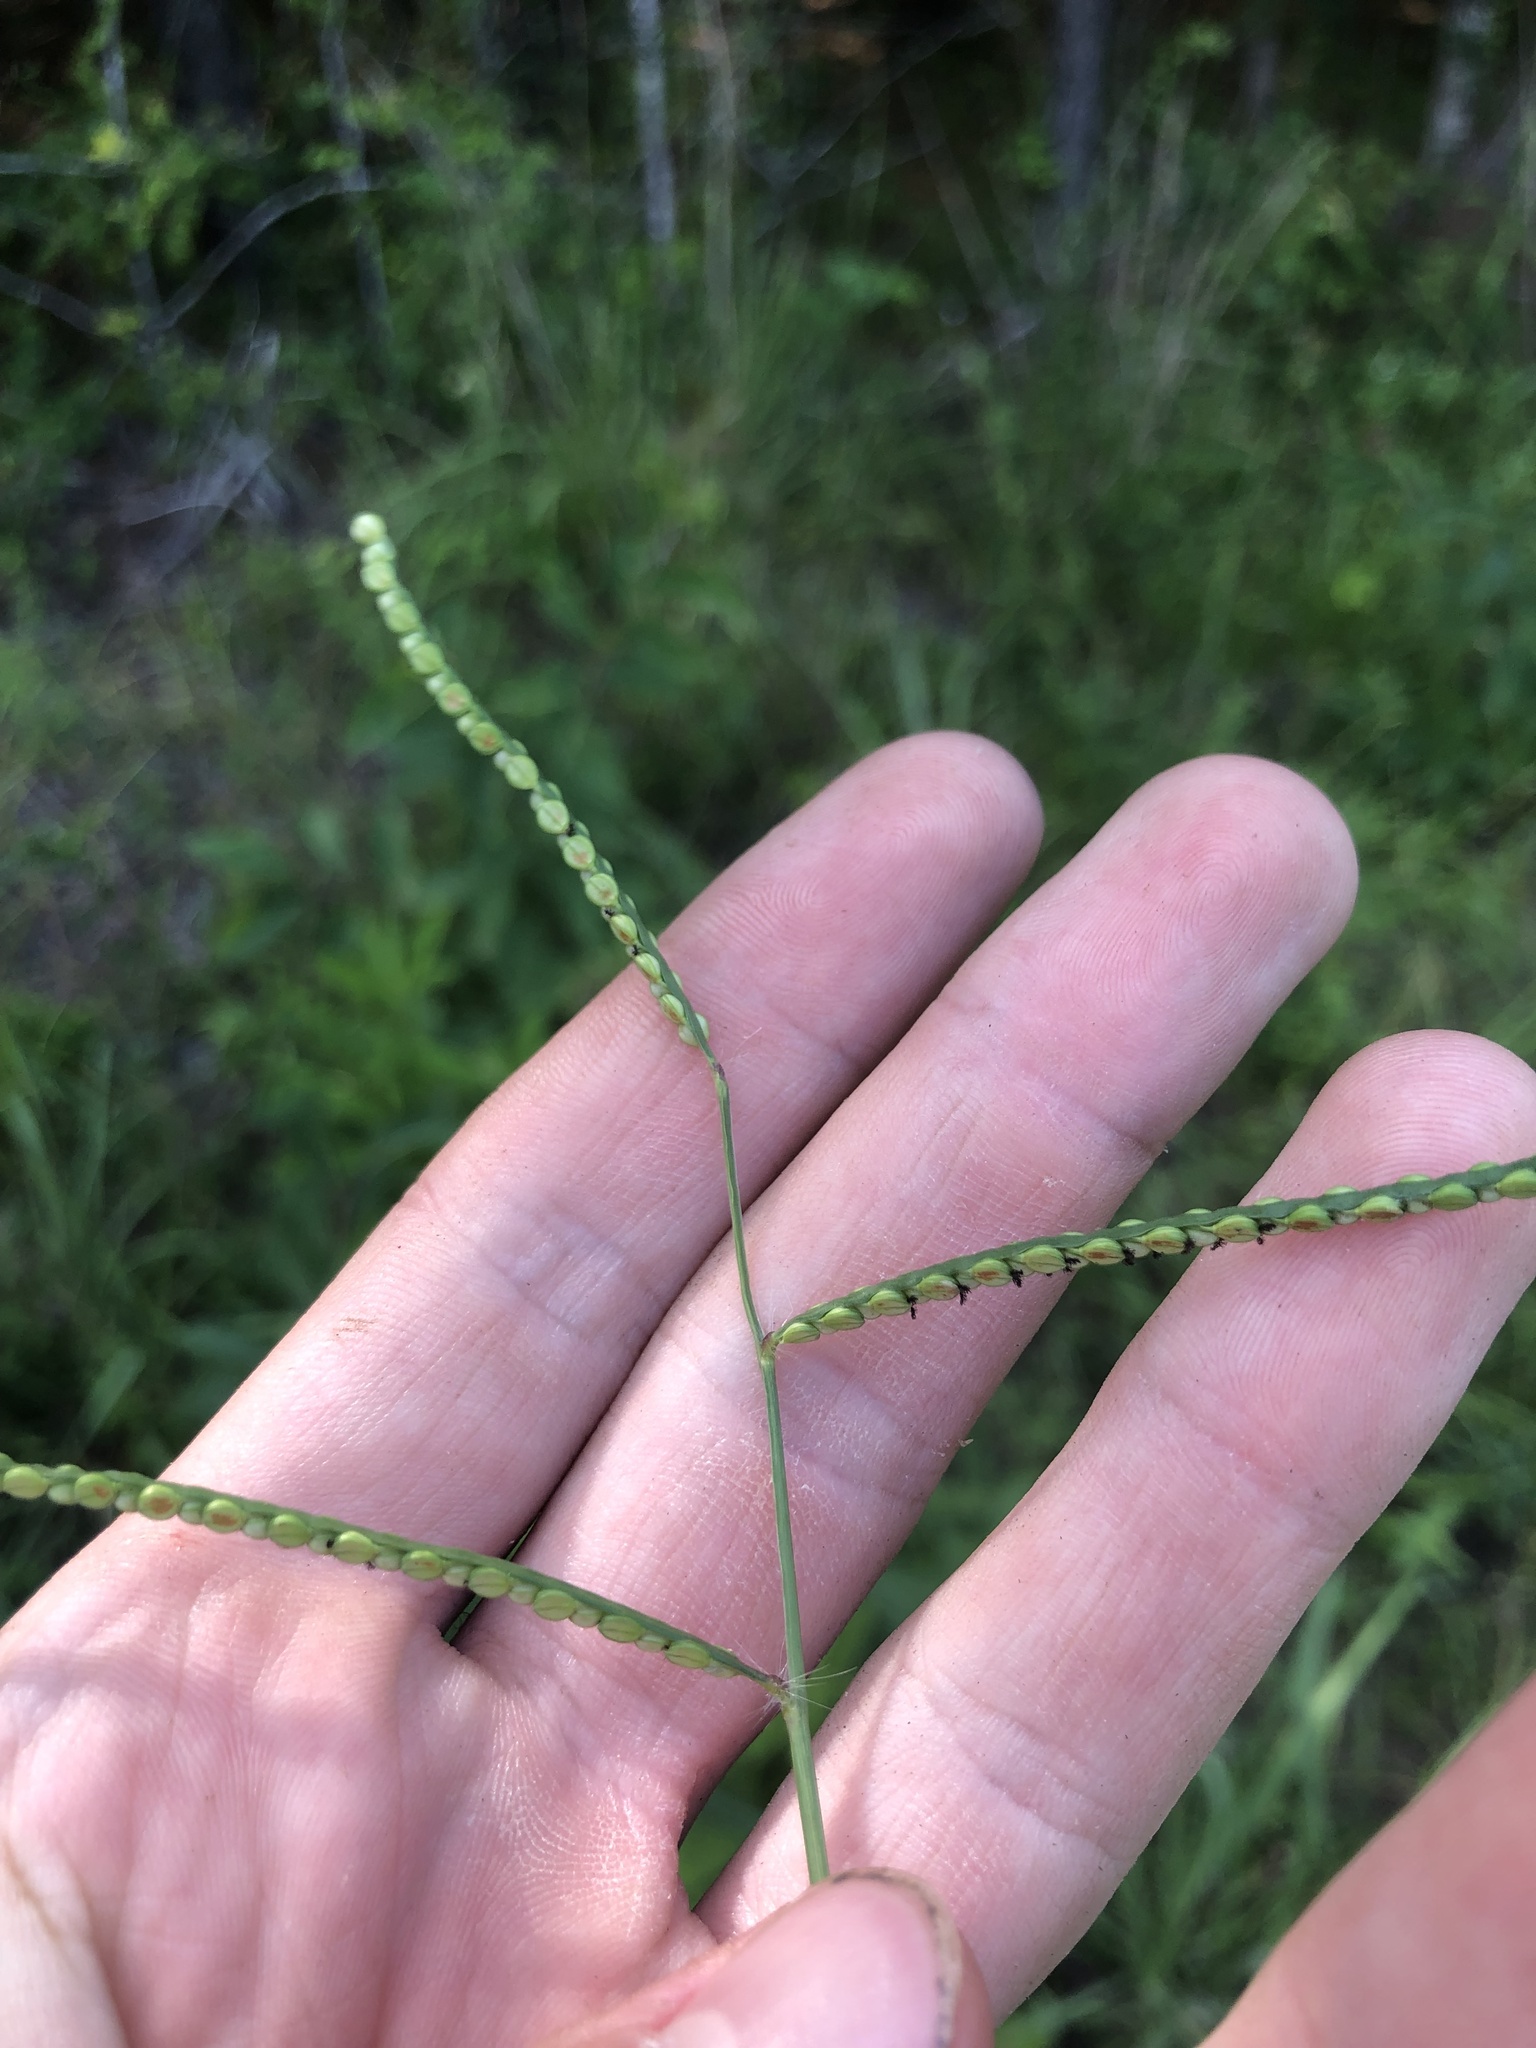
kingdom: Plantae
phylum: Tracheophyta
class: Liliopsida
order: Poales
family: Poaceae
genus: Paspalum
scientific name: Paspalum laeve
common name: Field paspalum
